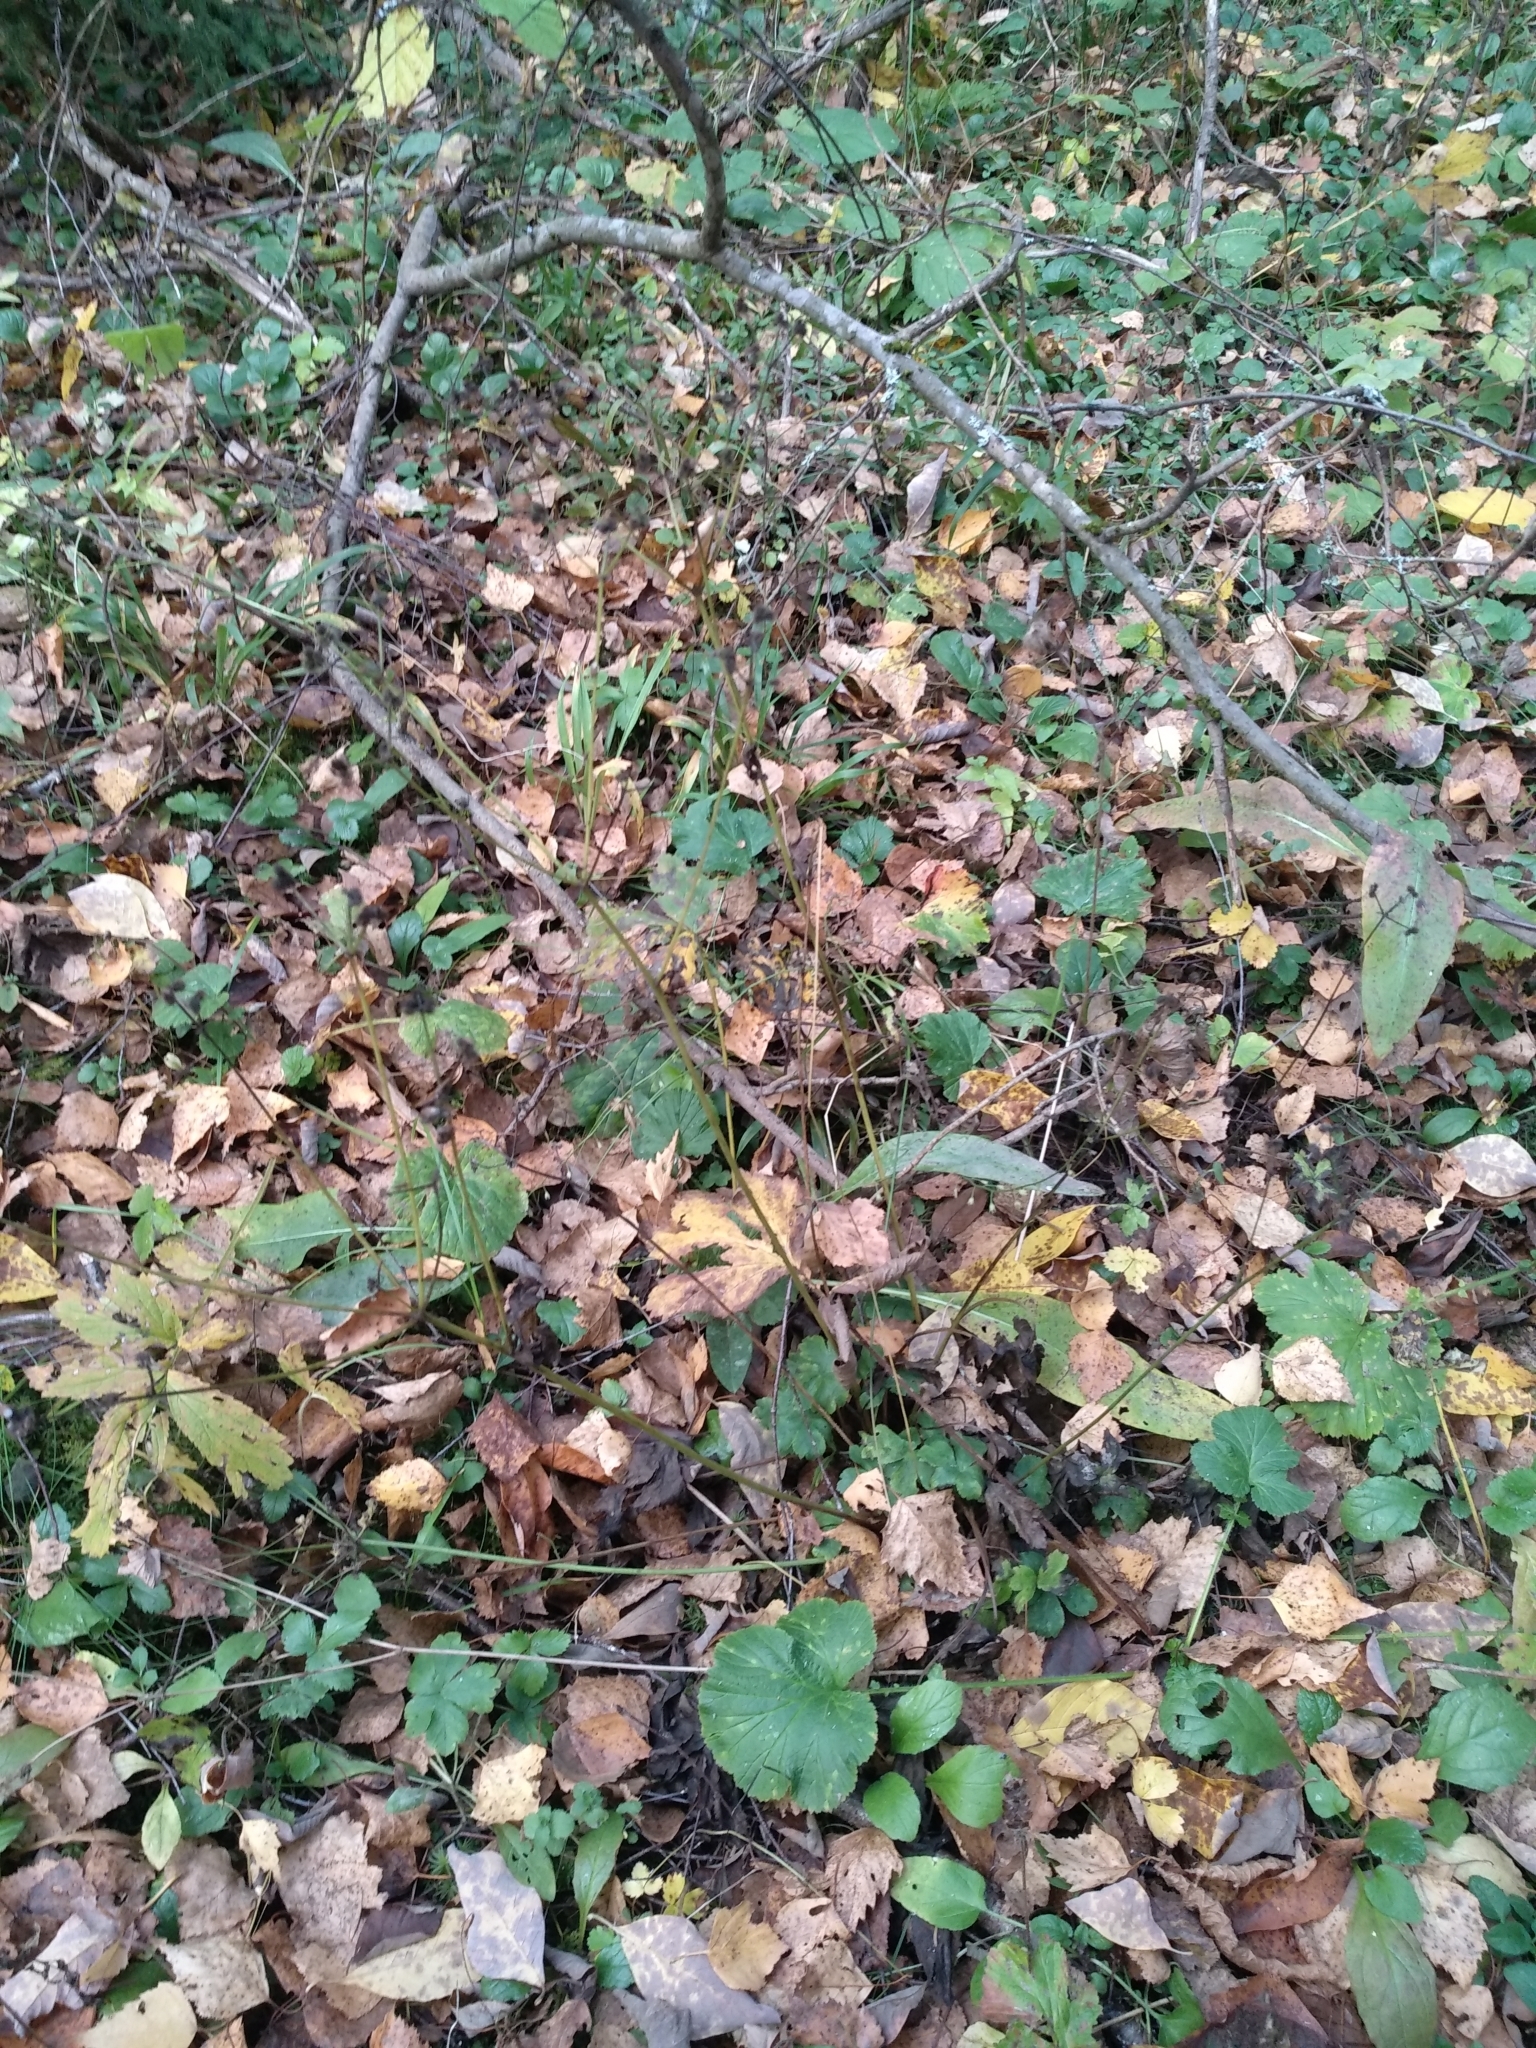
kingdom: Plantae
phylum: Tracheophyta
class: Magnoliopsida
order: Apiales
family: Apiaceae
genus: Sanicula
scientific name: Sanicula europaea
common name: Sanicle
